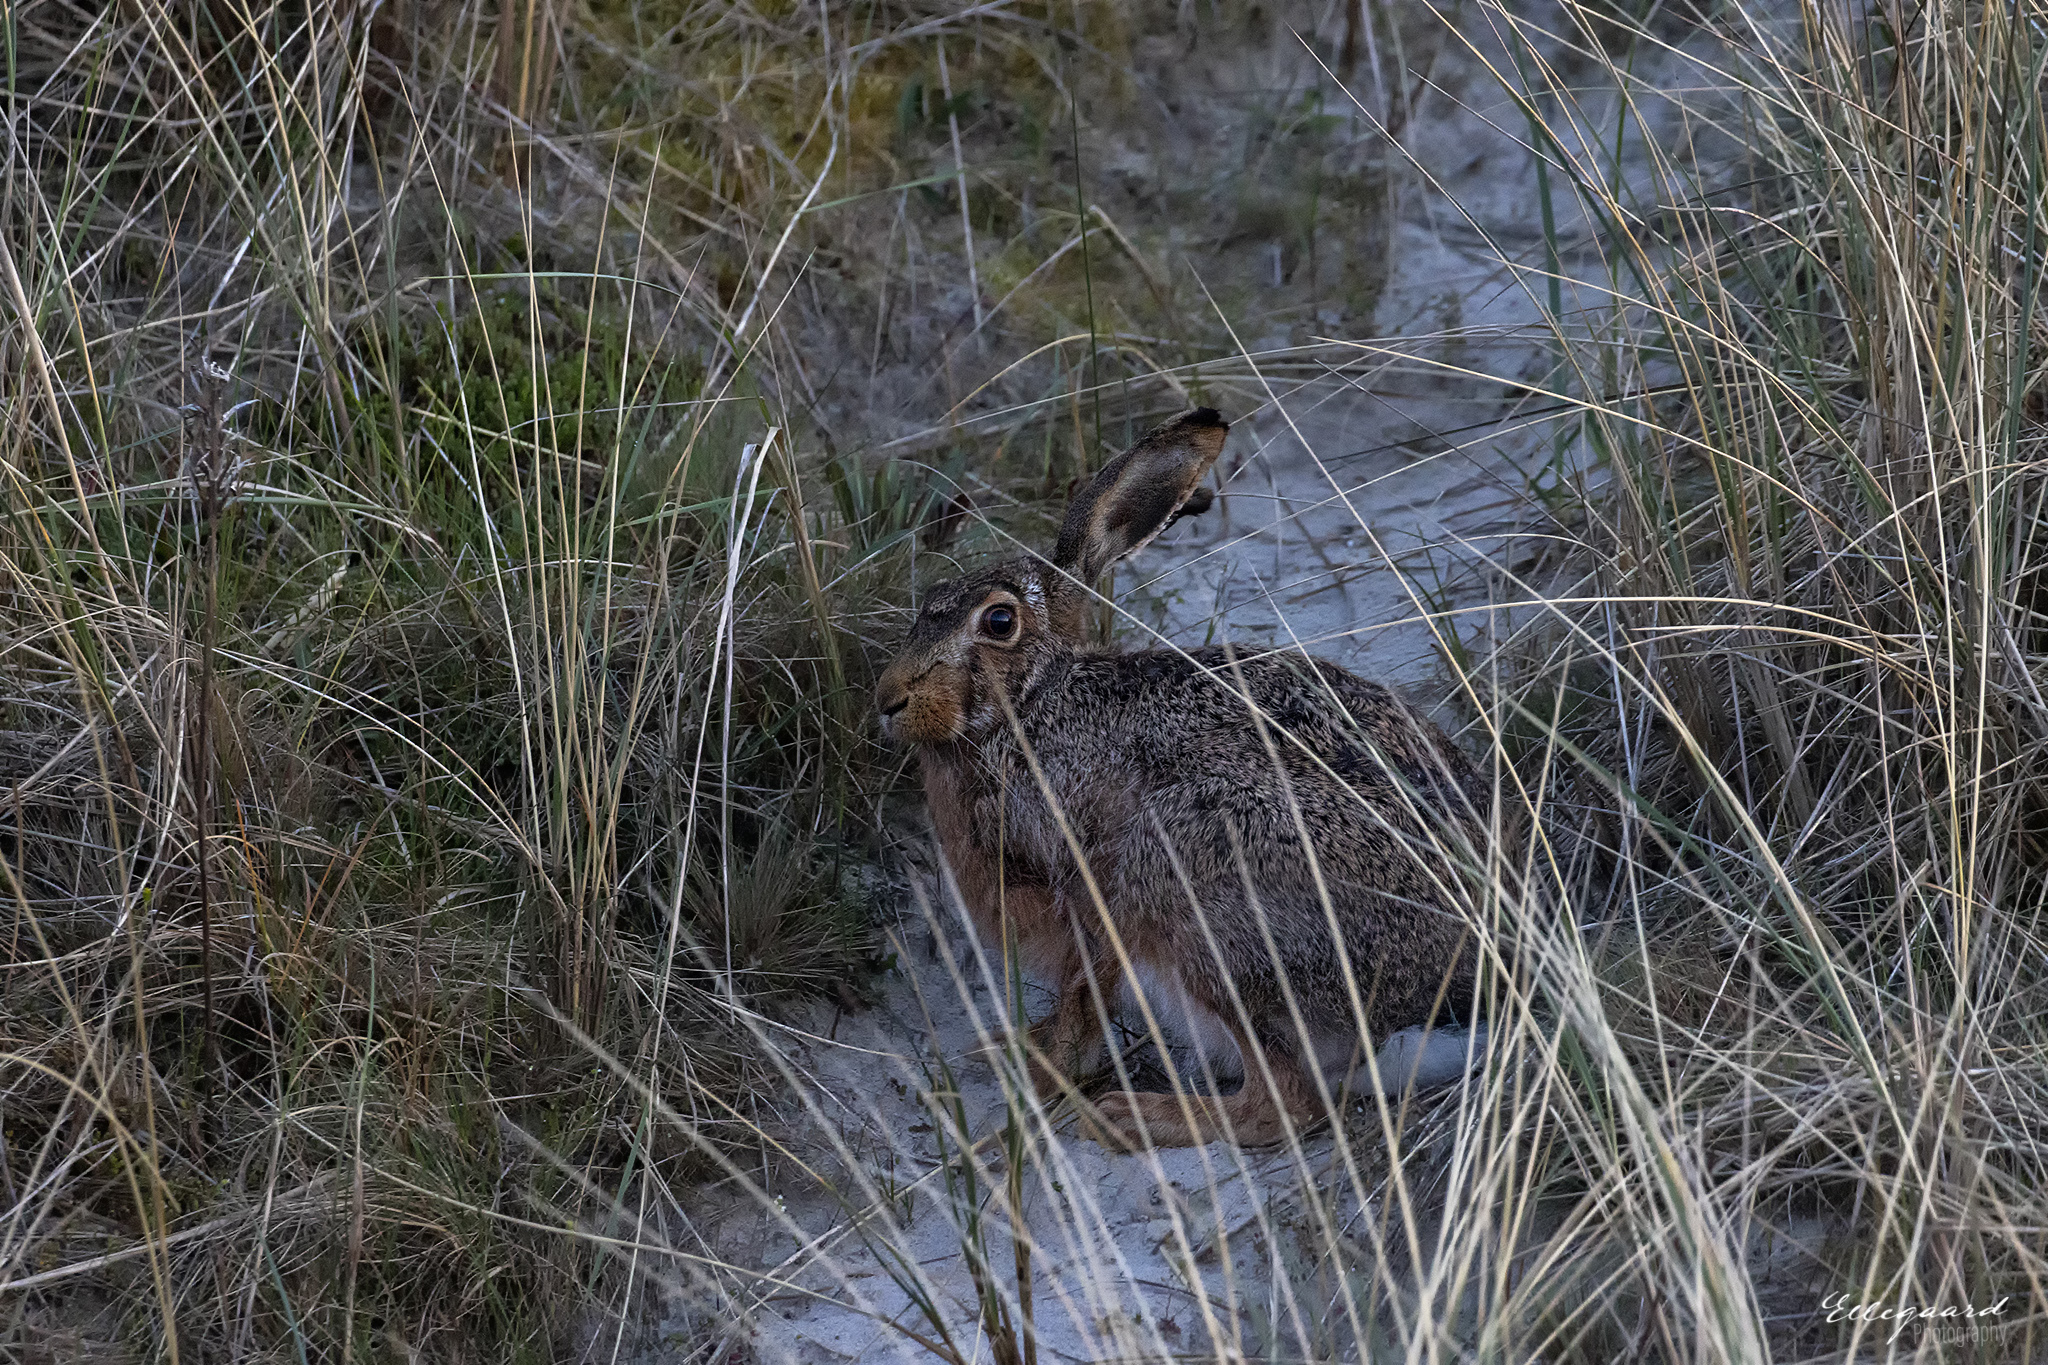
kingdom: Animalia
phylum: Chordata
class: Mammalia
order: Lagomorpha
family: Leporidae
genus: Lepus
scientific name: Lepus europaeus
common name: European hare
